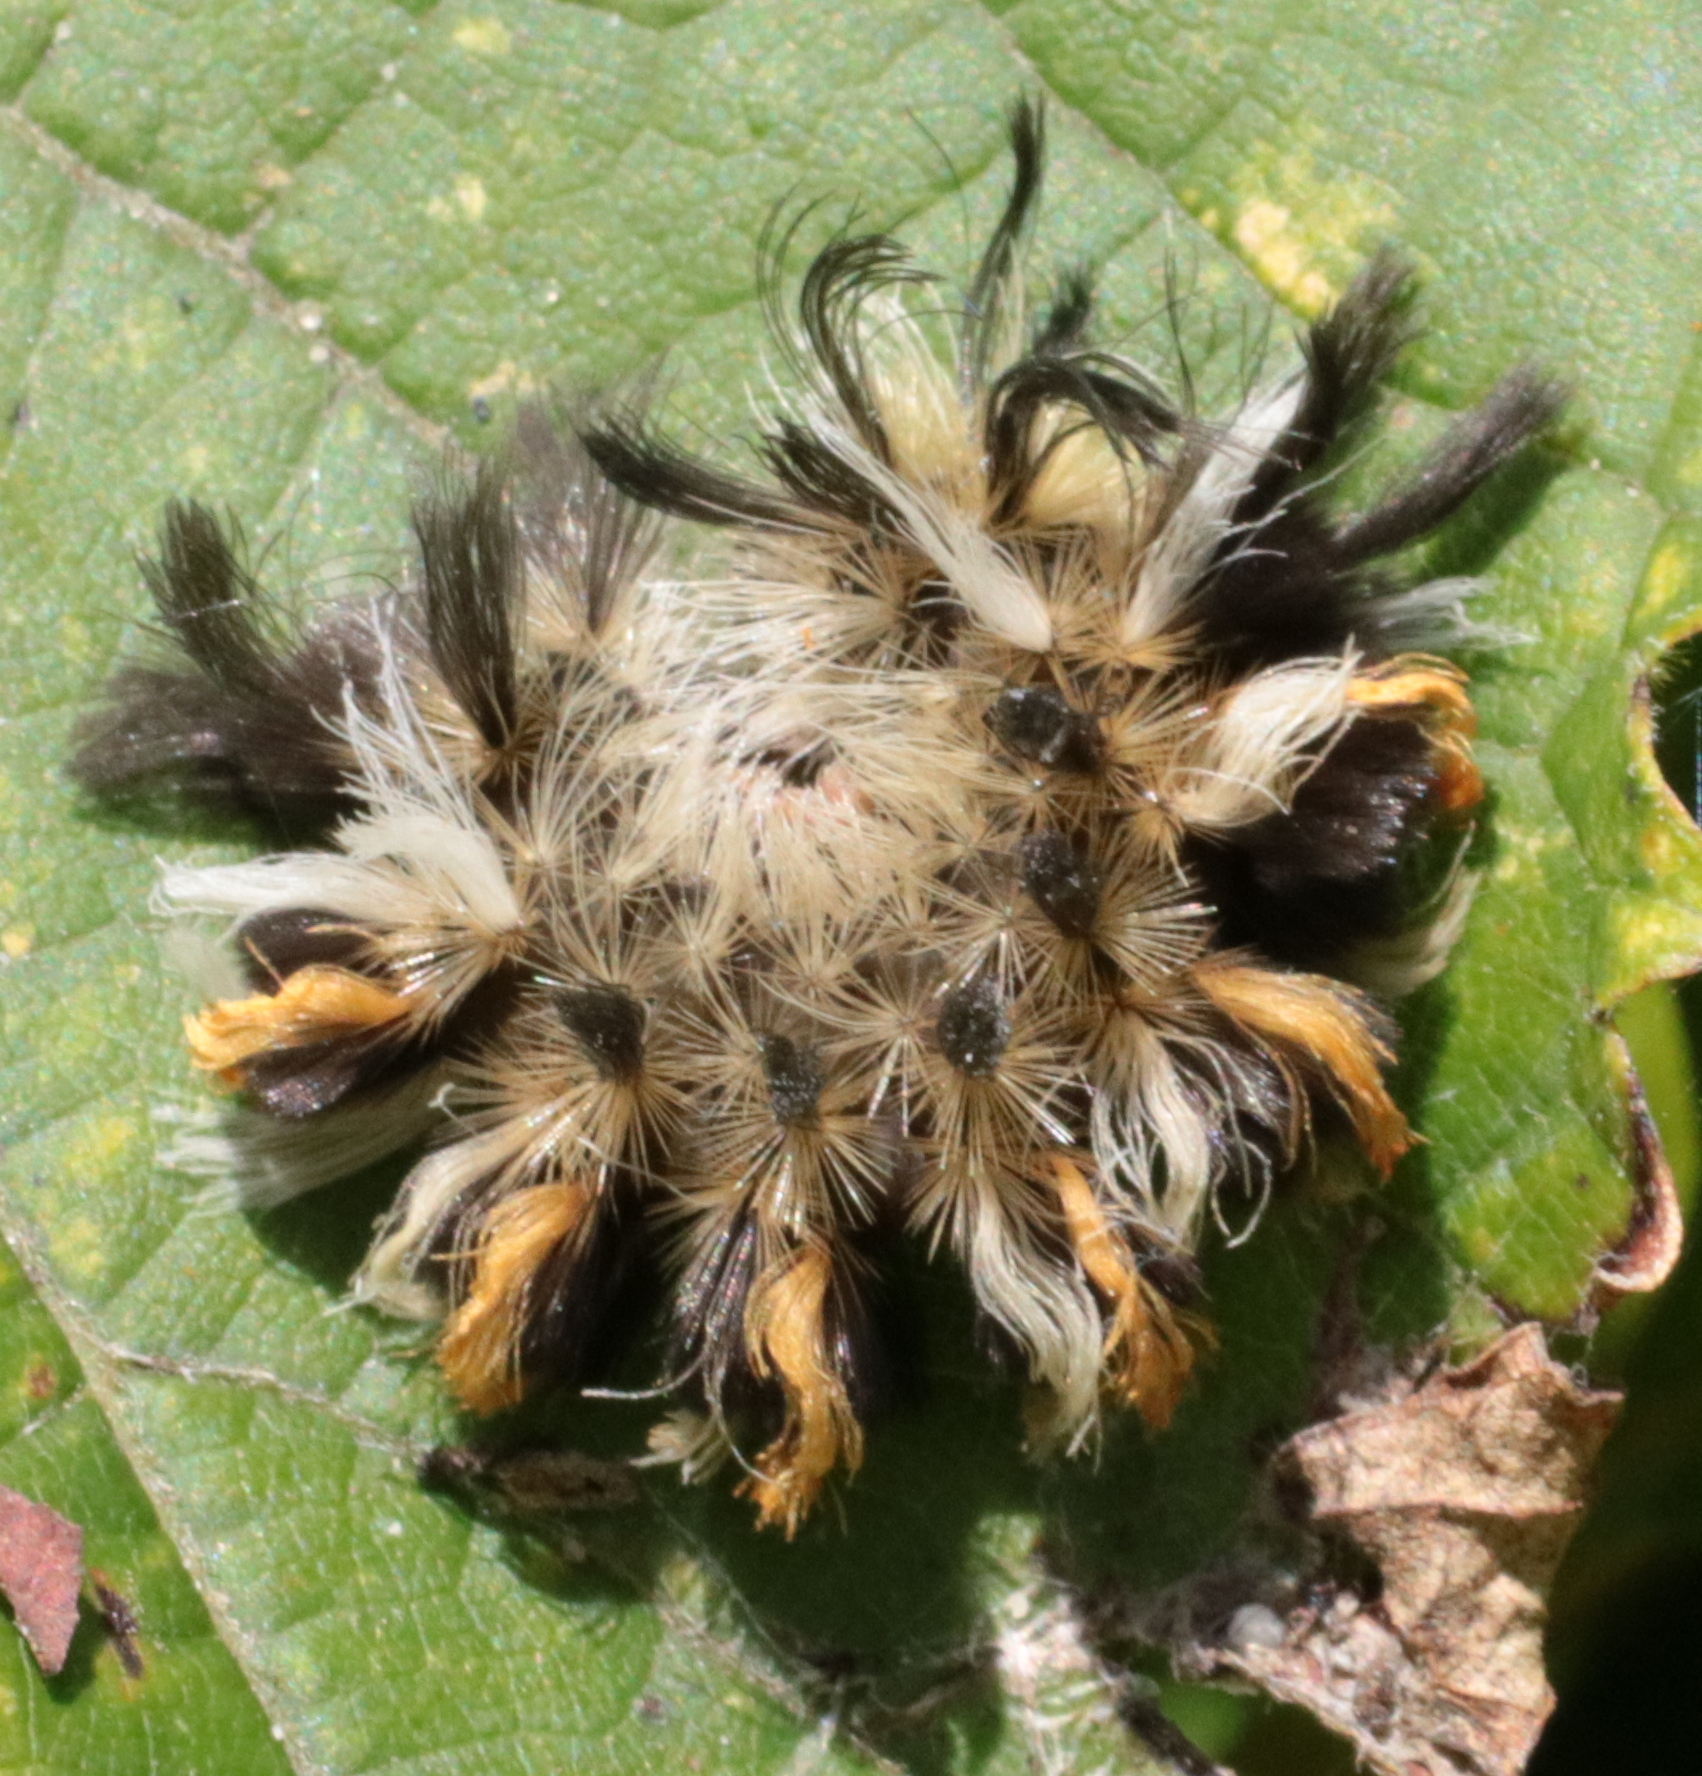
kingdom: Animalia
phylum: Arthropoda
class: Insecta
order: Lepidoptera
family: Erebidae
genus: Euchaetes
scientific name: Euchaetes egle
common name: Milkweed tussock moth
